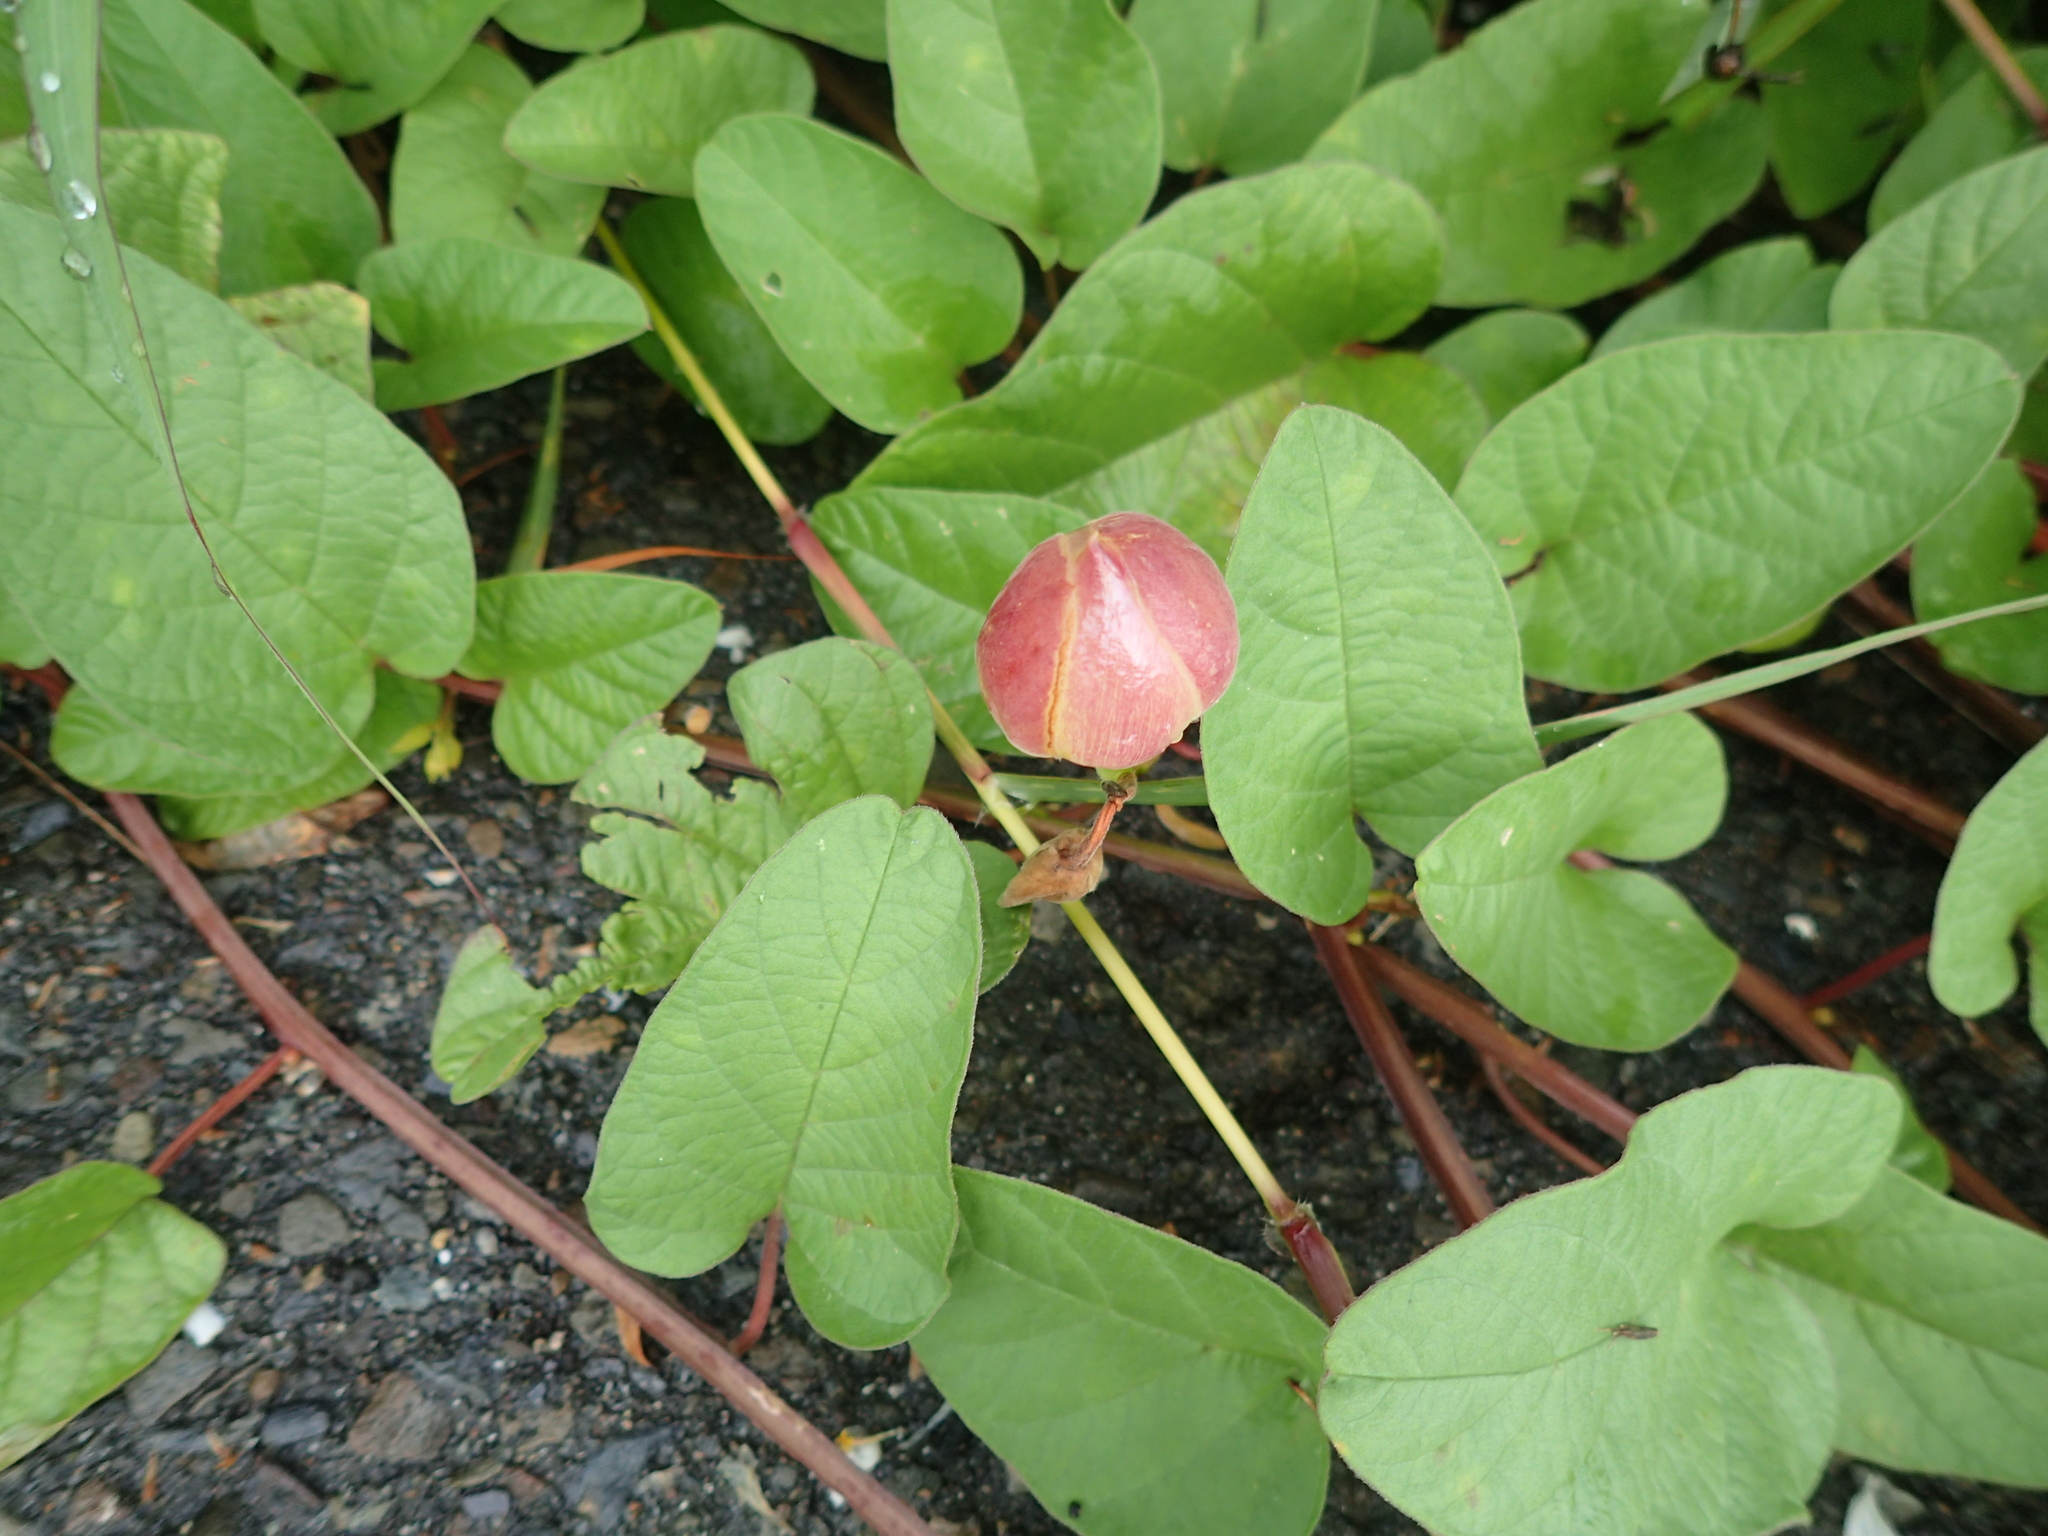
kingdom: Plantae
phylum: Tracheophyta
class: Magnoliopsida
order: Solanales
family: Convolvulaceae
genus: Operculina
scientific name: Operculina turpethum
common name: Transparent wood-rose
